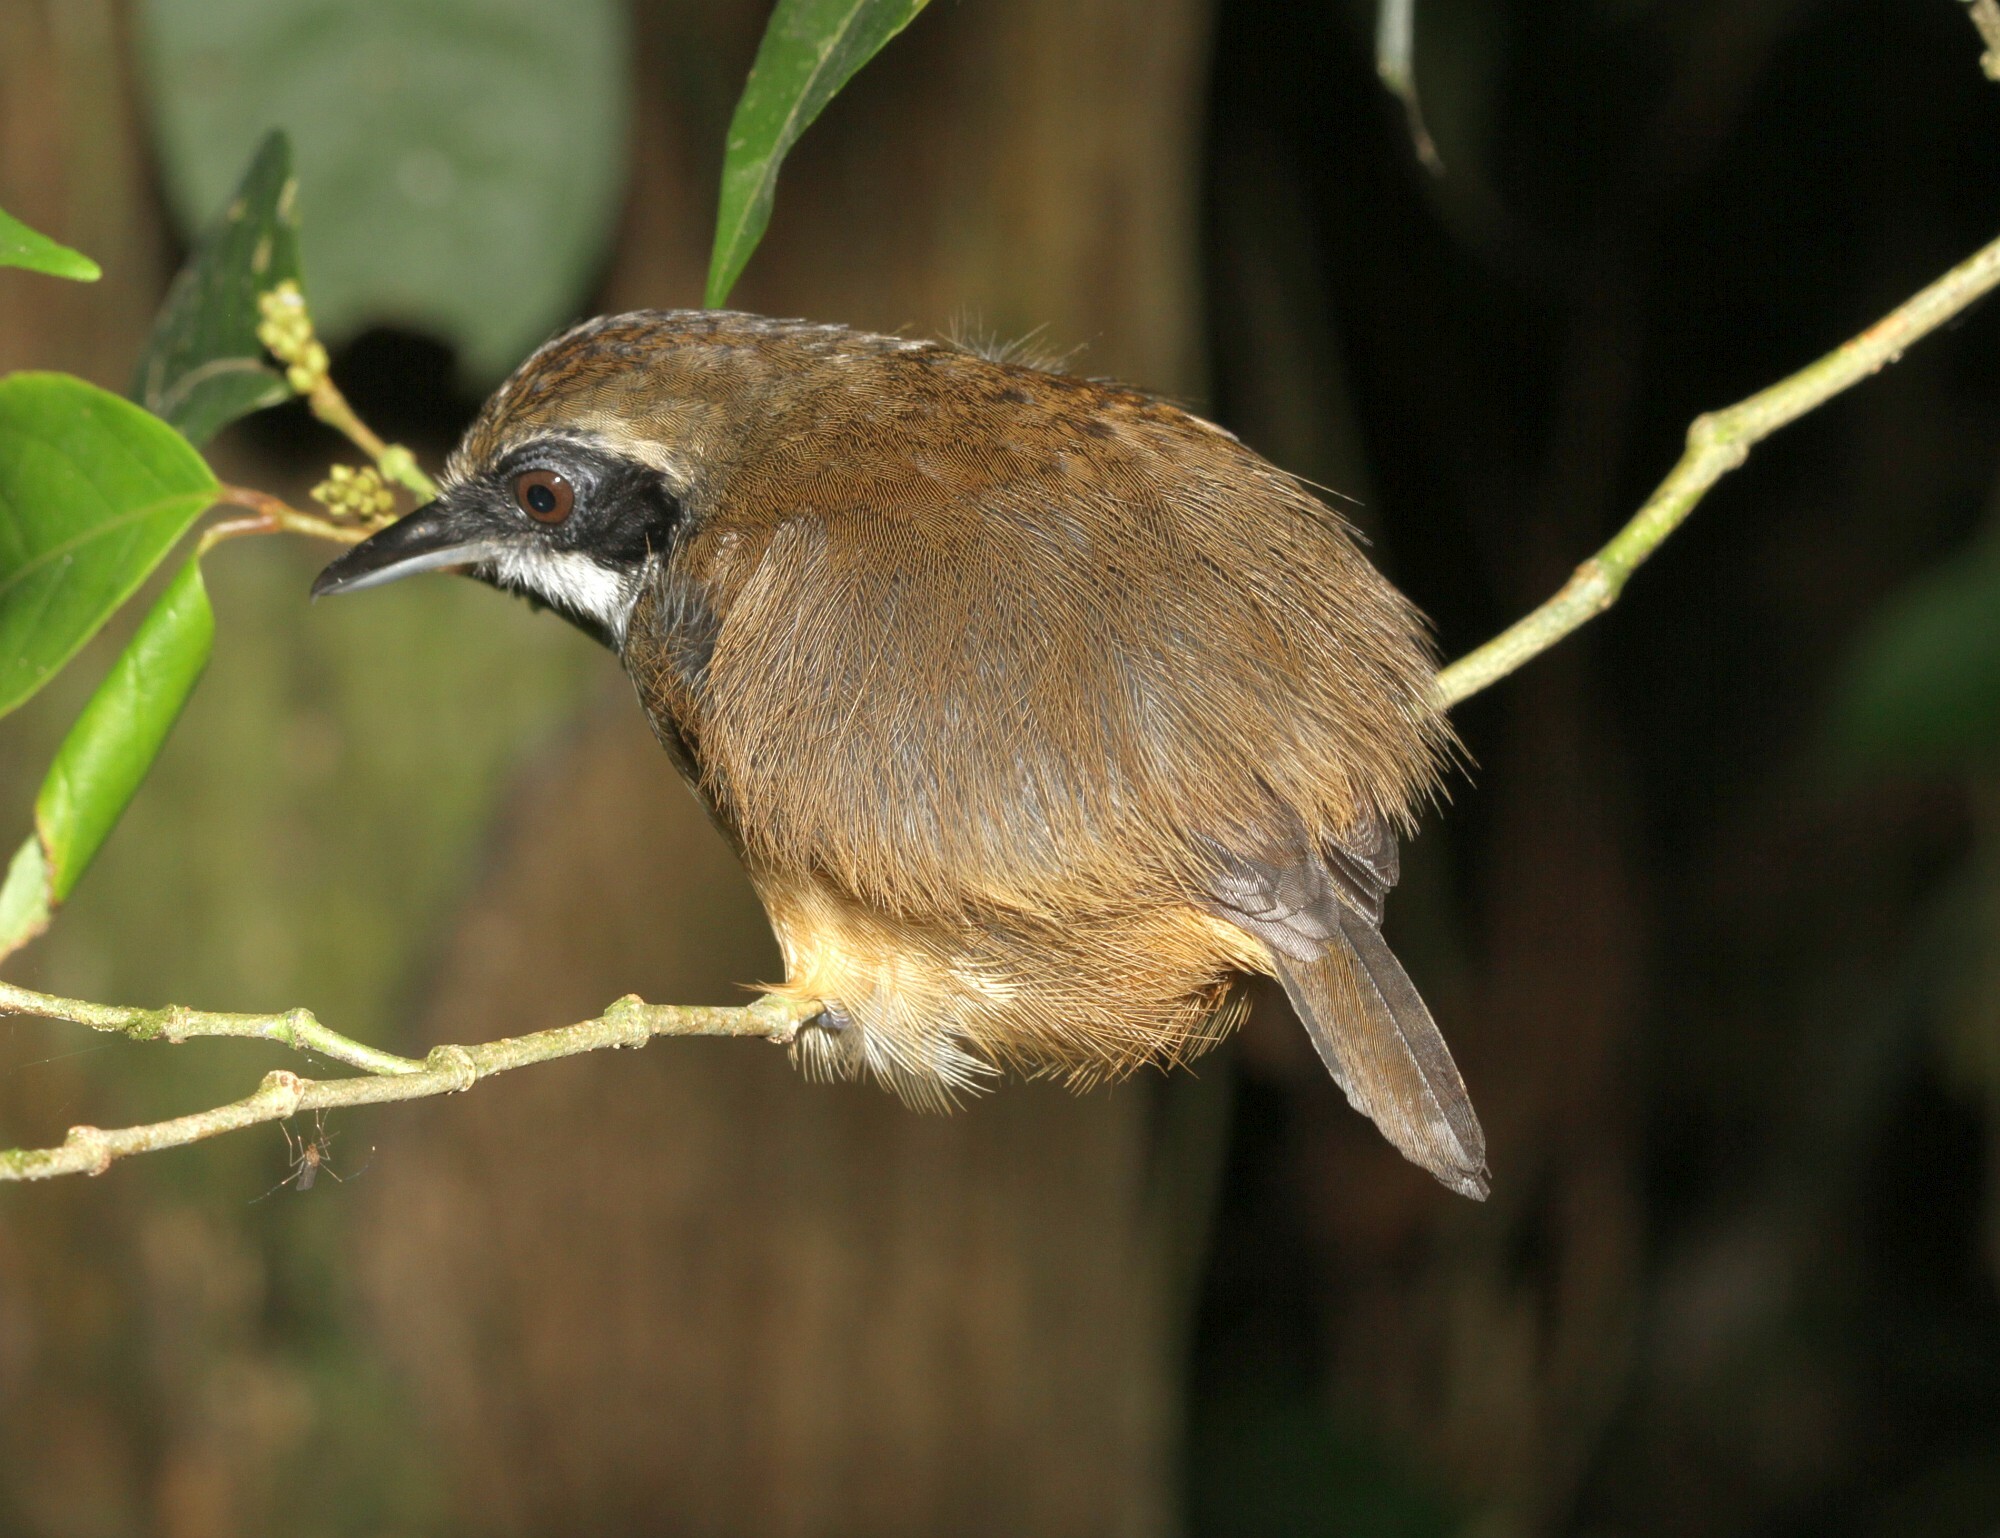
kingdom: Animalia
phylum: Chordata
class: Aves
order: Passeriformes
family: Thamnophilidae
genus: Myrmoborus
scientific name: Myrmoborus myotherinus
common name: Black-faced antbird
